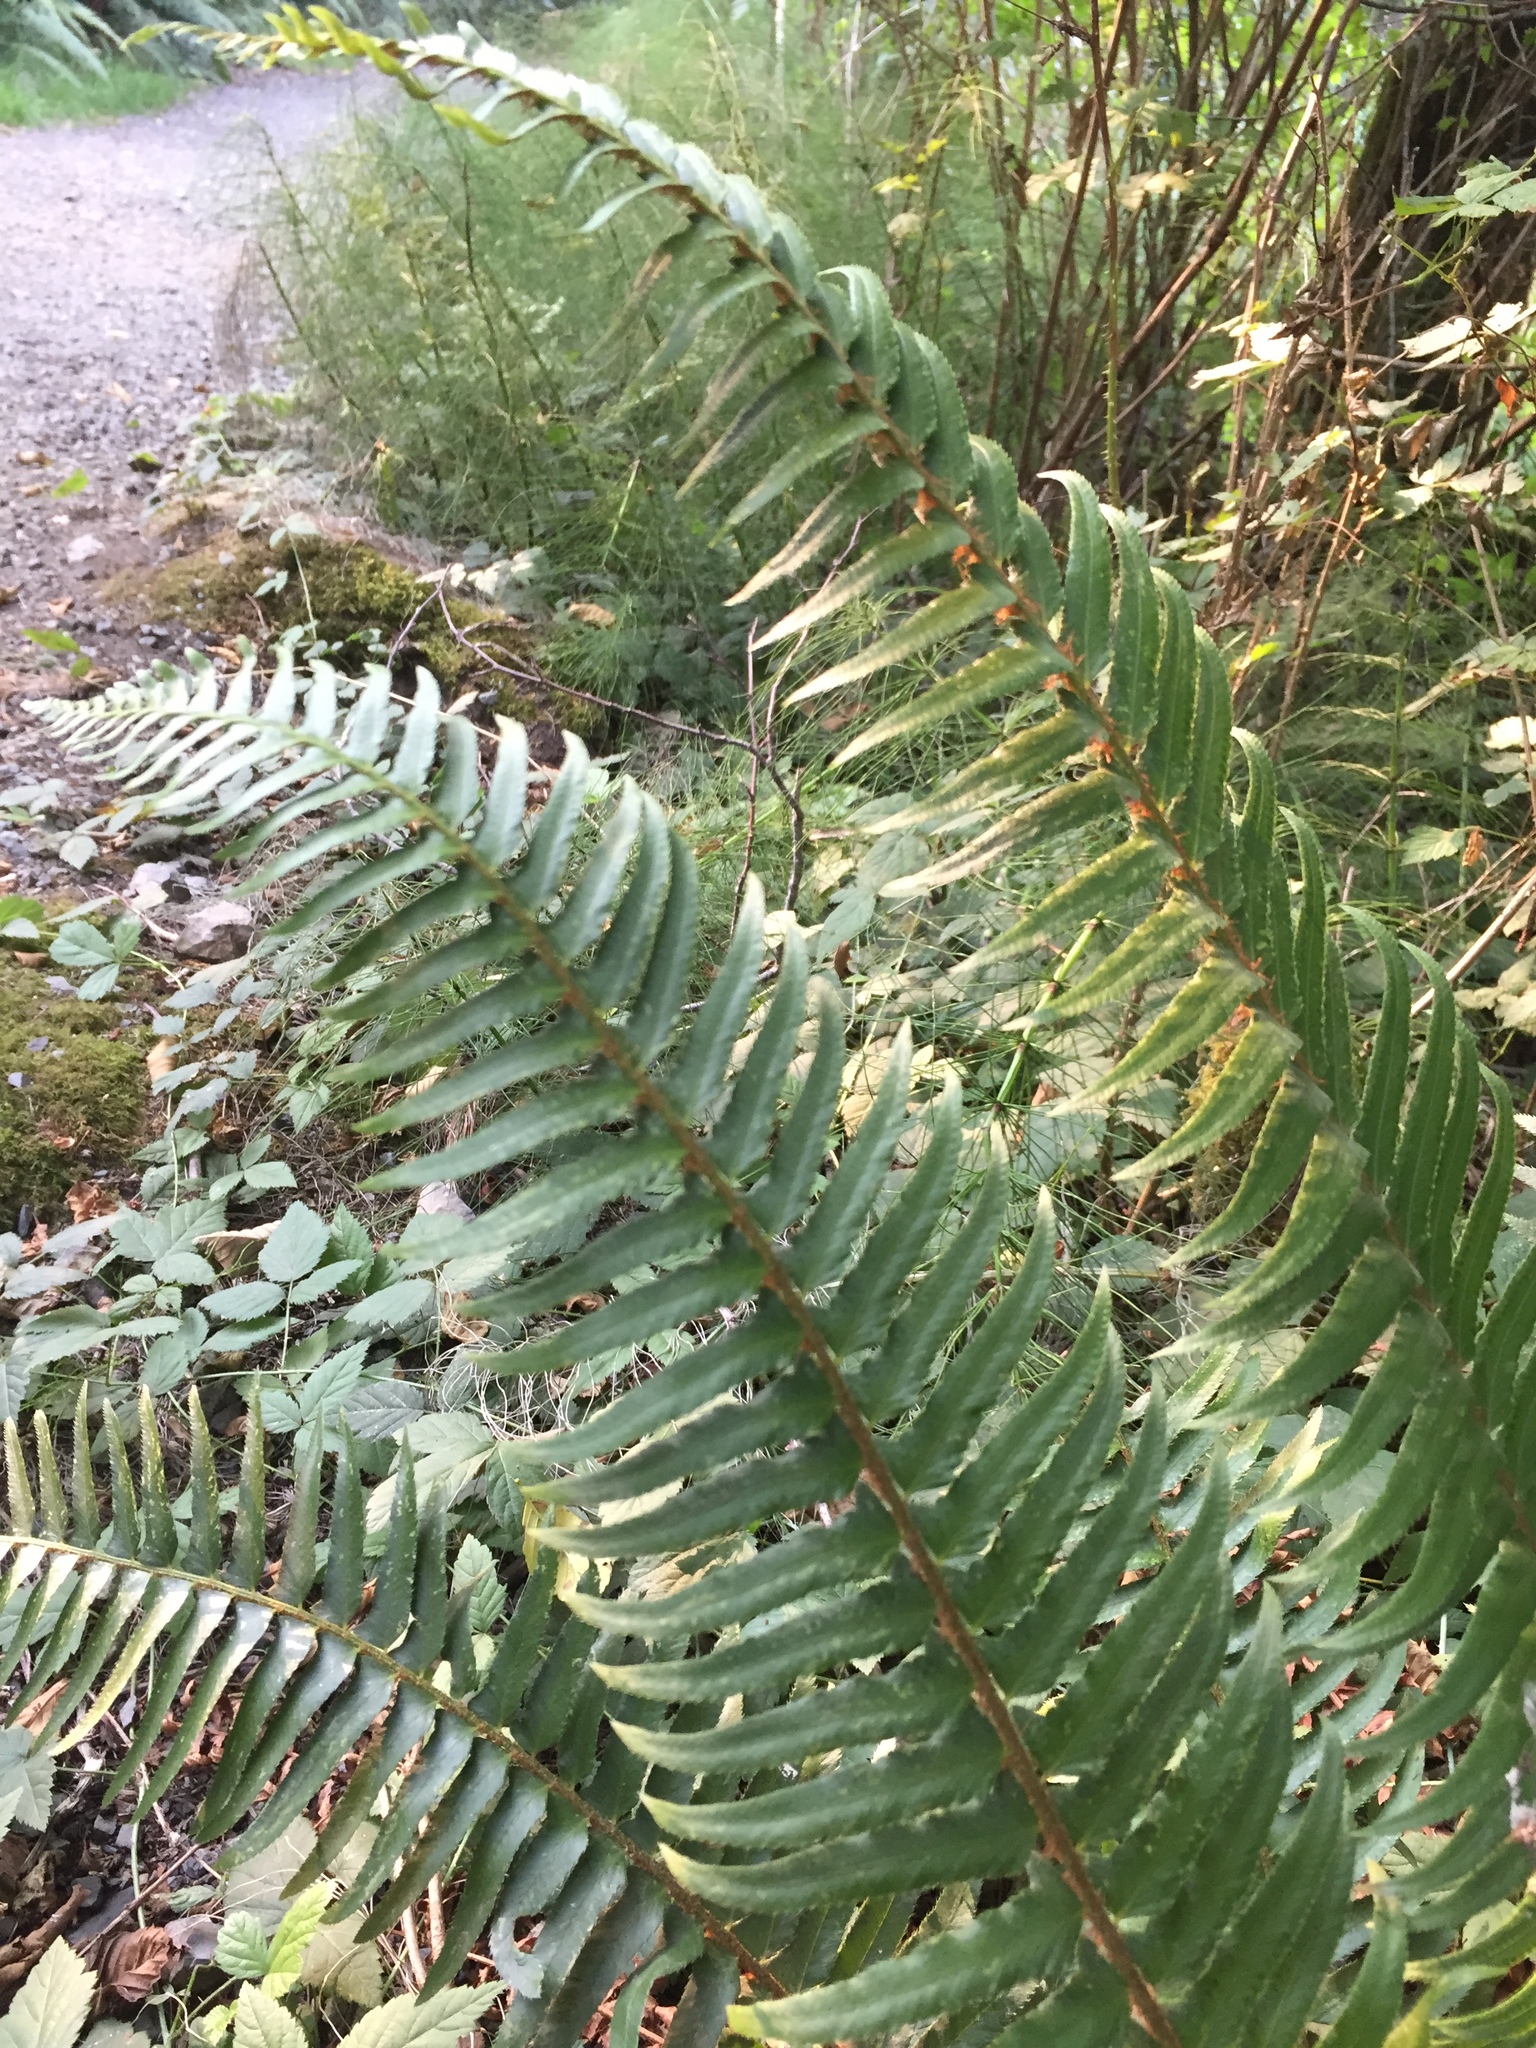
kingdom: Plantae
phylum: Tracheophyta
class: Polypodiopsida
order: Polypodiales
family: Dryopteridaceae
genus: Polystichum
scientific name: Polystichum munitum
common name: Western sword-fern
